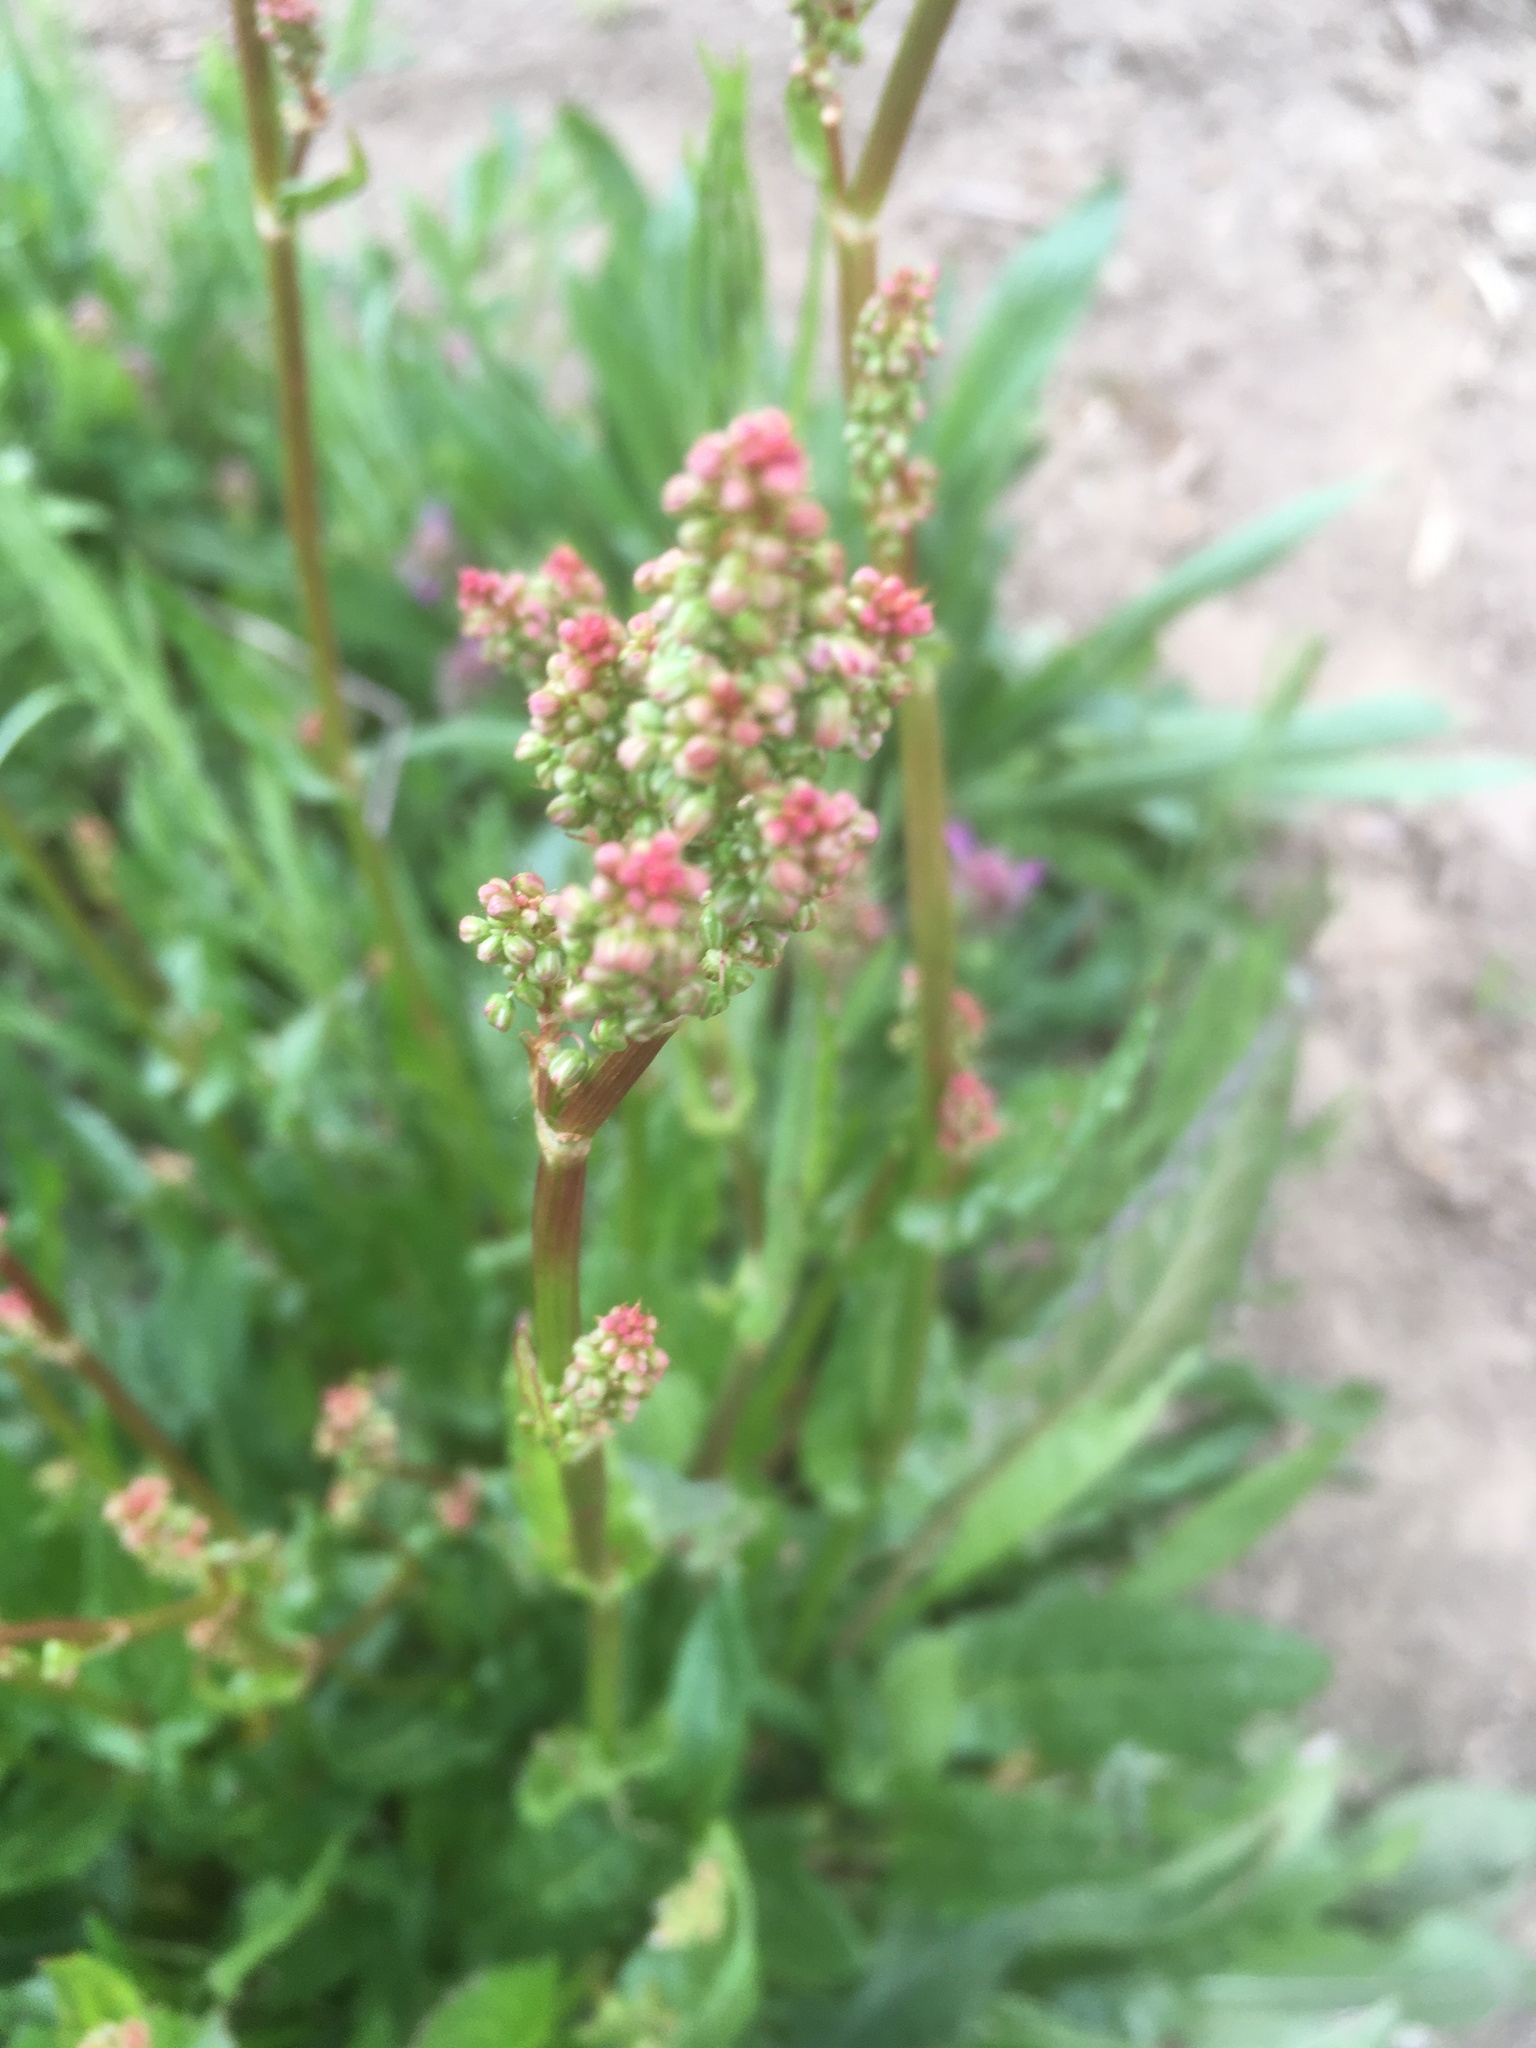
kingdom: Plantae
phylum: Tracheophyta
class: Magnoliopsida
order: Caryophyllales
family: Polygonaceae
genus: Rumex
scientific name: Rumex acetosa
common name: Garden sorrel
